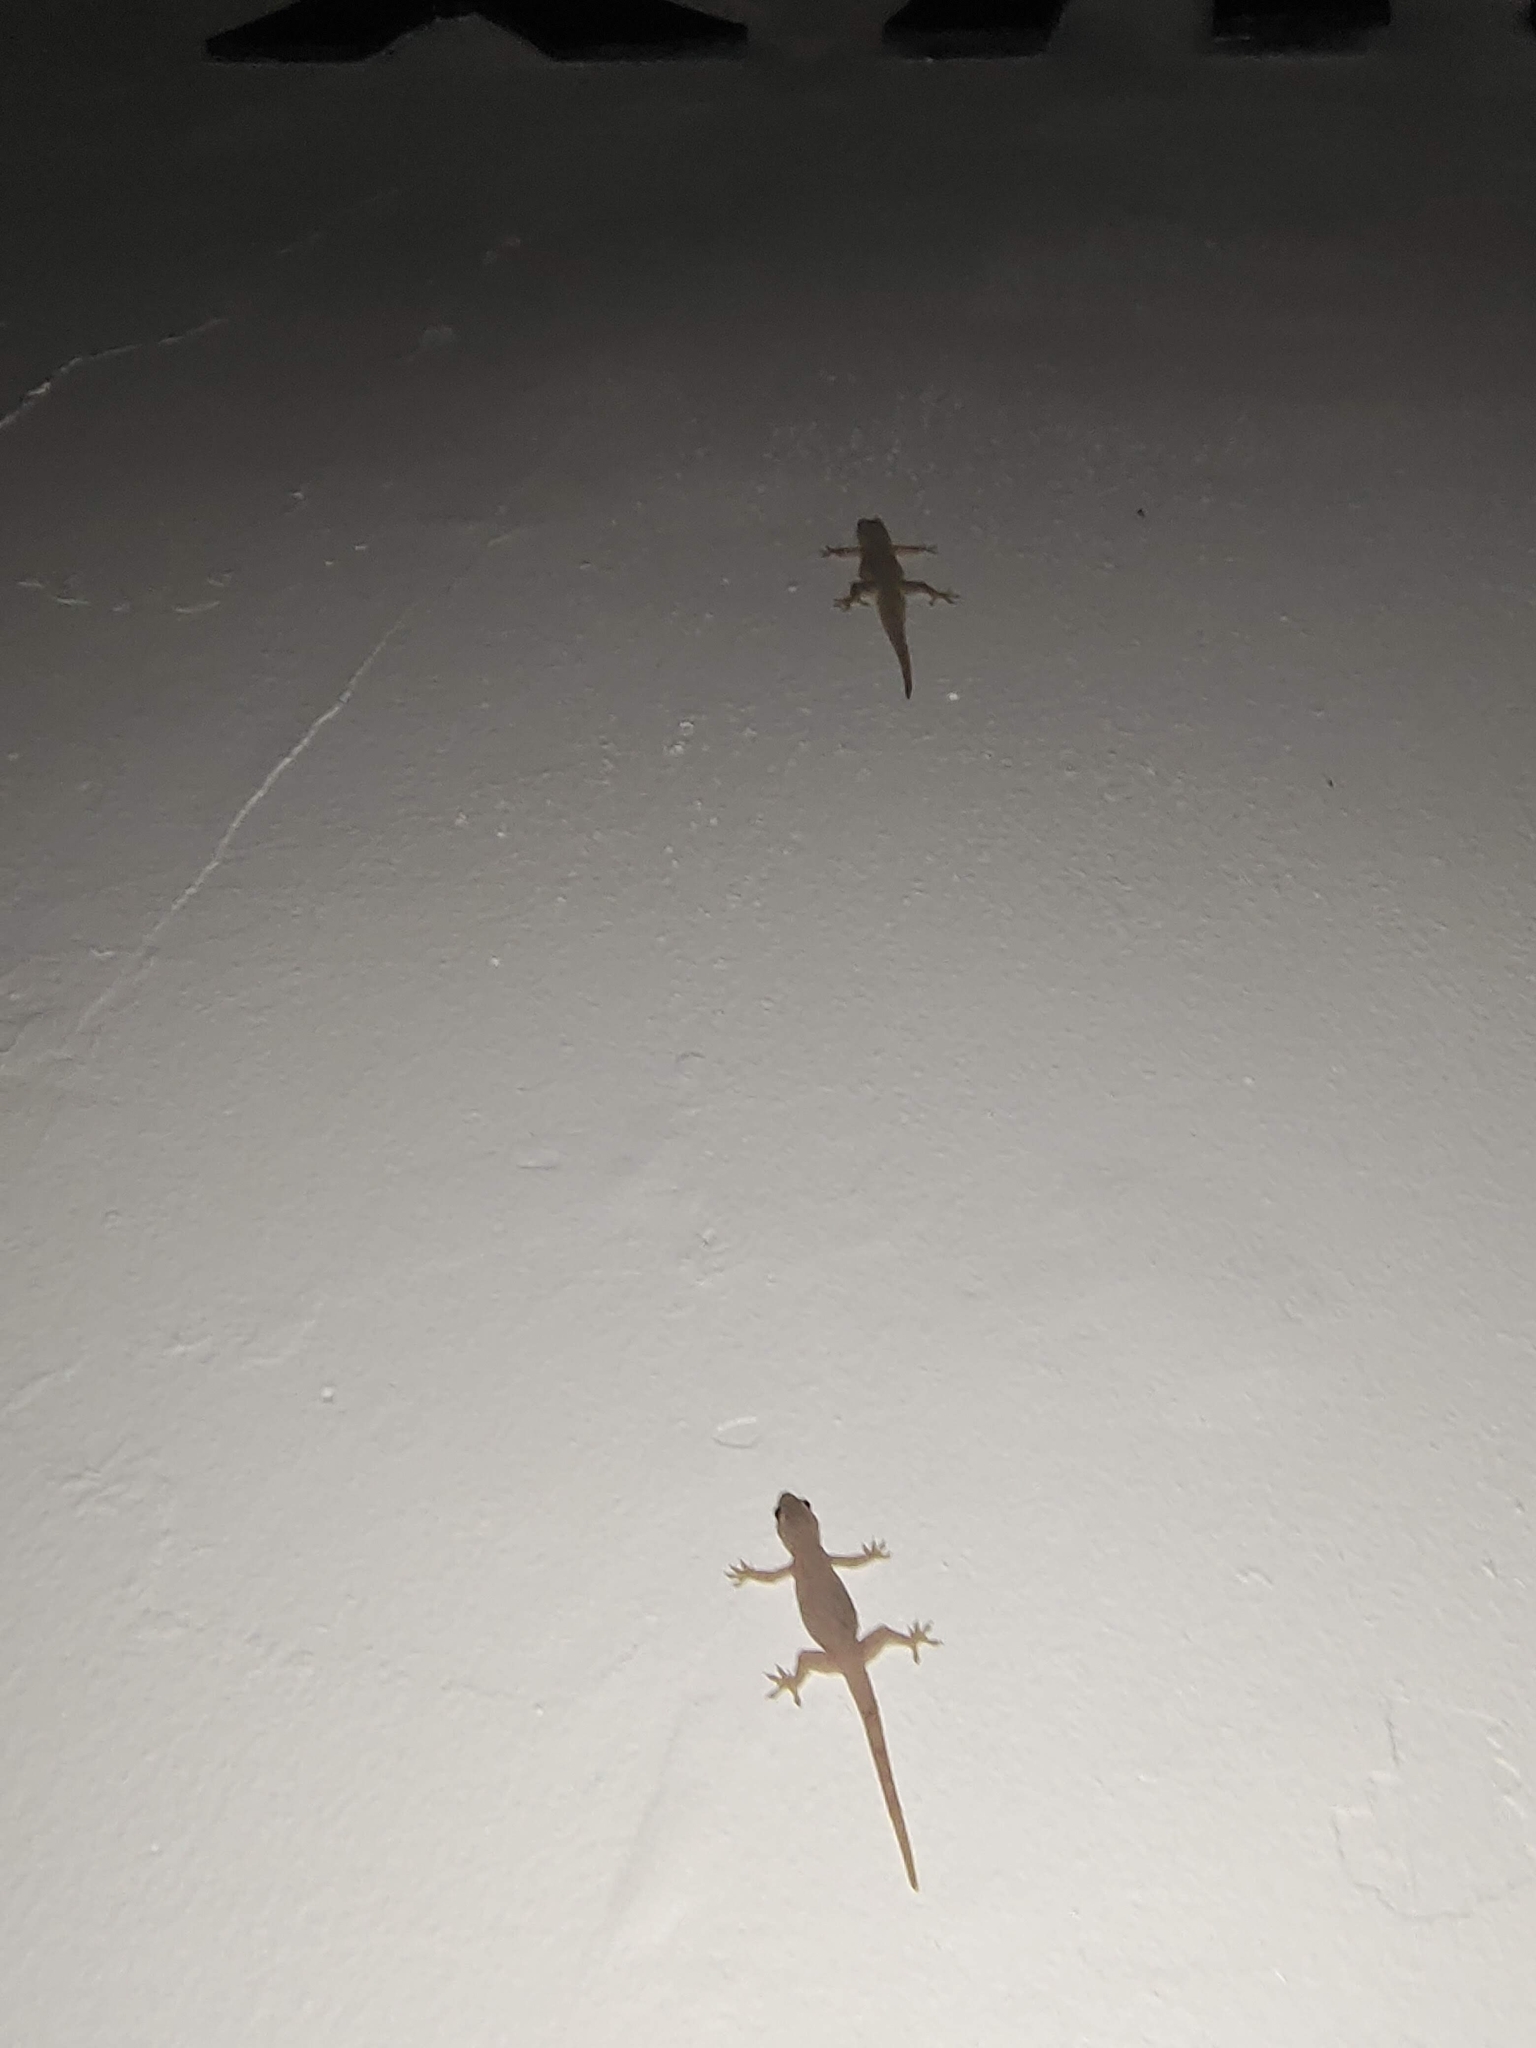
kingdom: Animalia
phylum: Chordata
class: Squamata
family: Gekkonidae
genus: Hemidactylus
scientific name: Hemidactylus platyurus
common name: Flat-tailed house gecko
